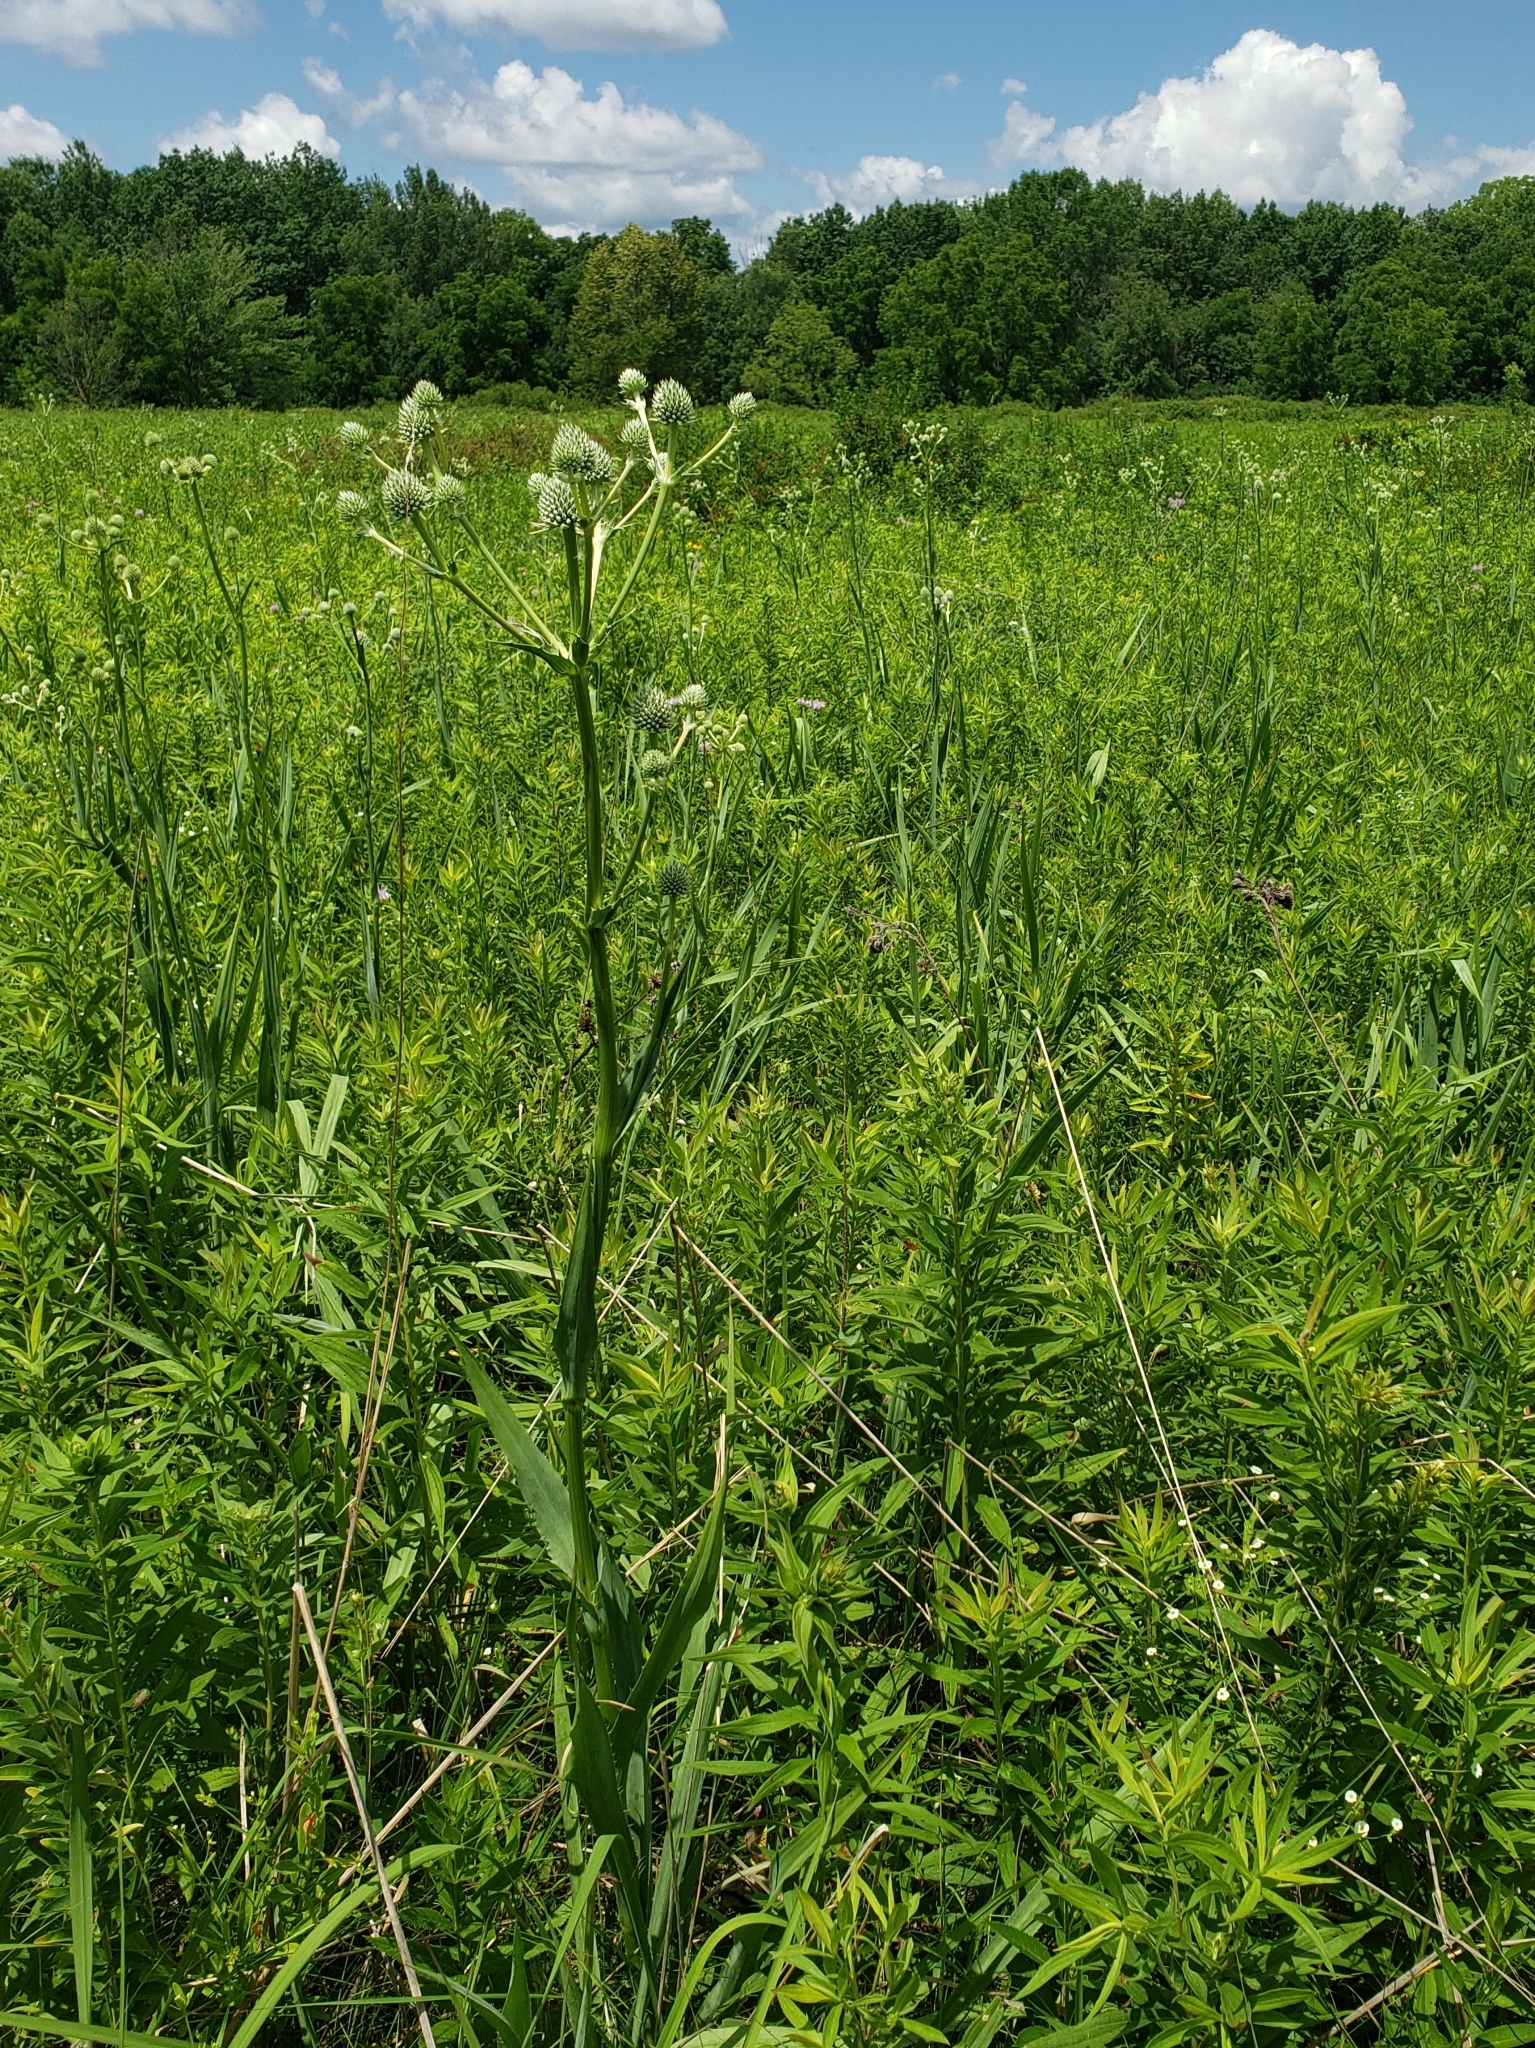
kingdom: Plantae
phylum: Tracheophyta
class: Magnoliopsida
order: Apiales
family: Apiaceae
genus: Eryngium
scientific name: Eryngium yuccifolium
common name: Button eryngo
